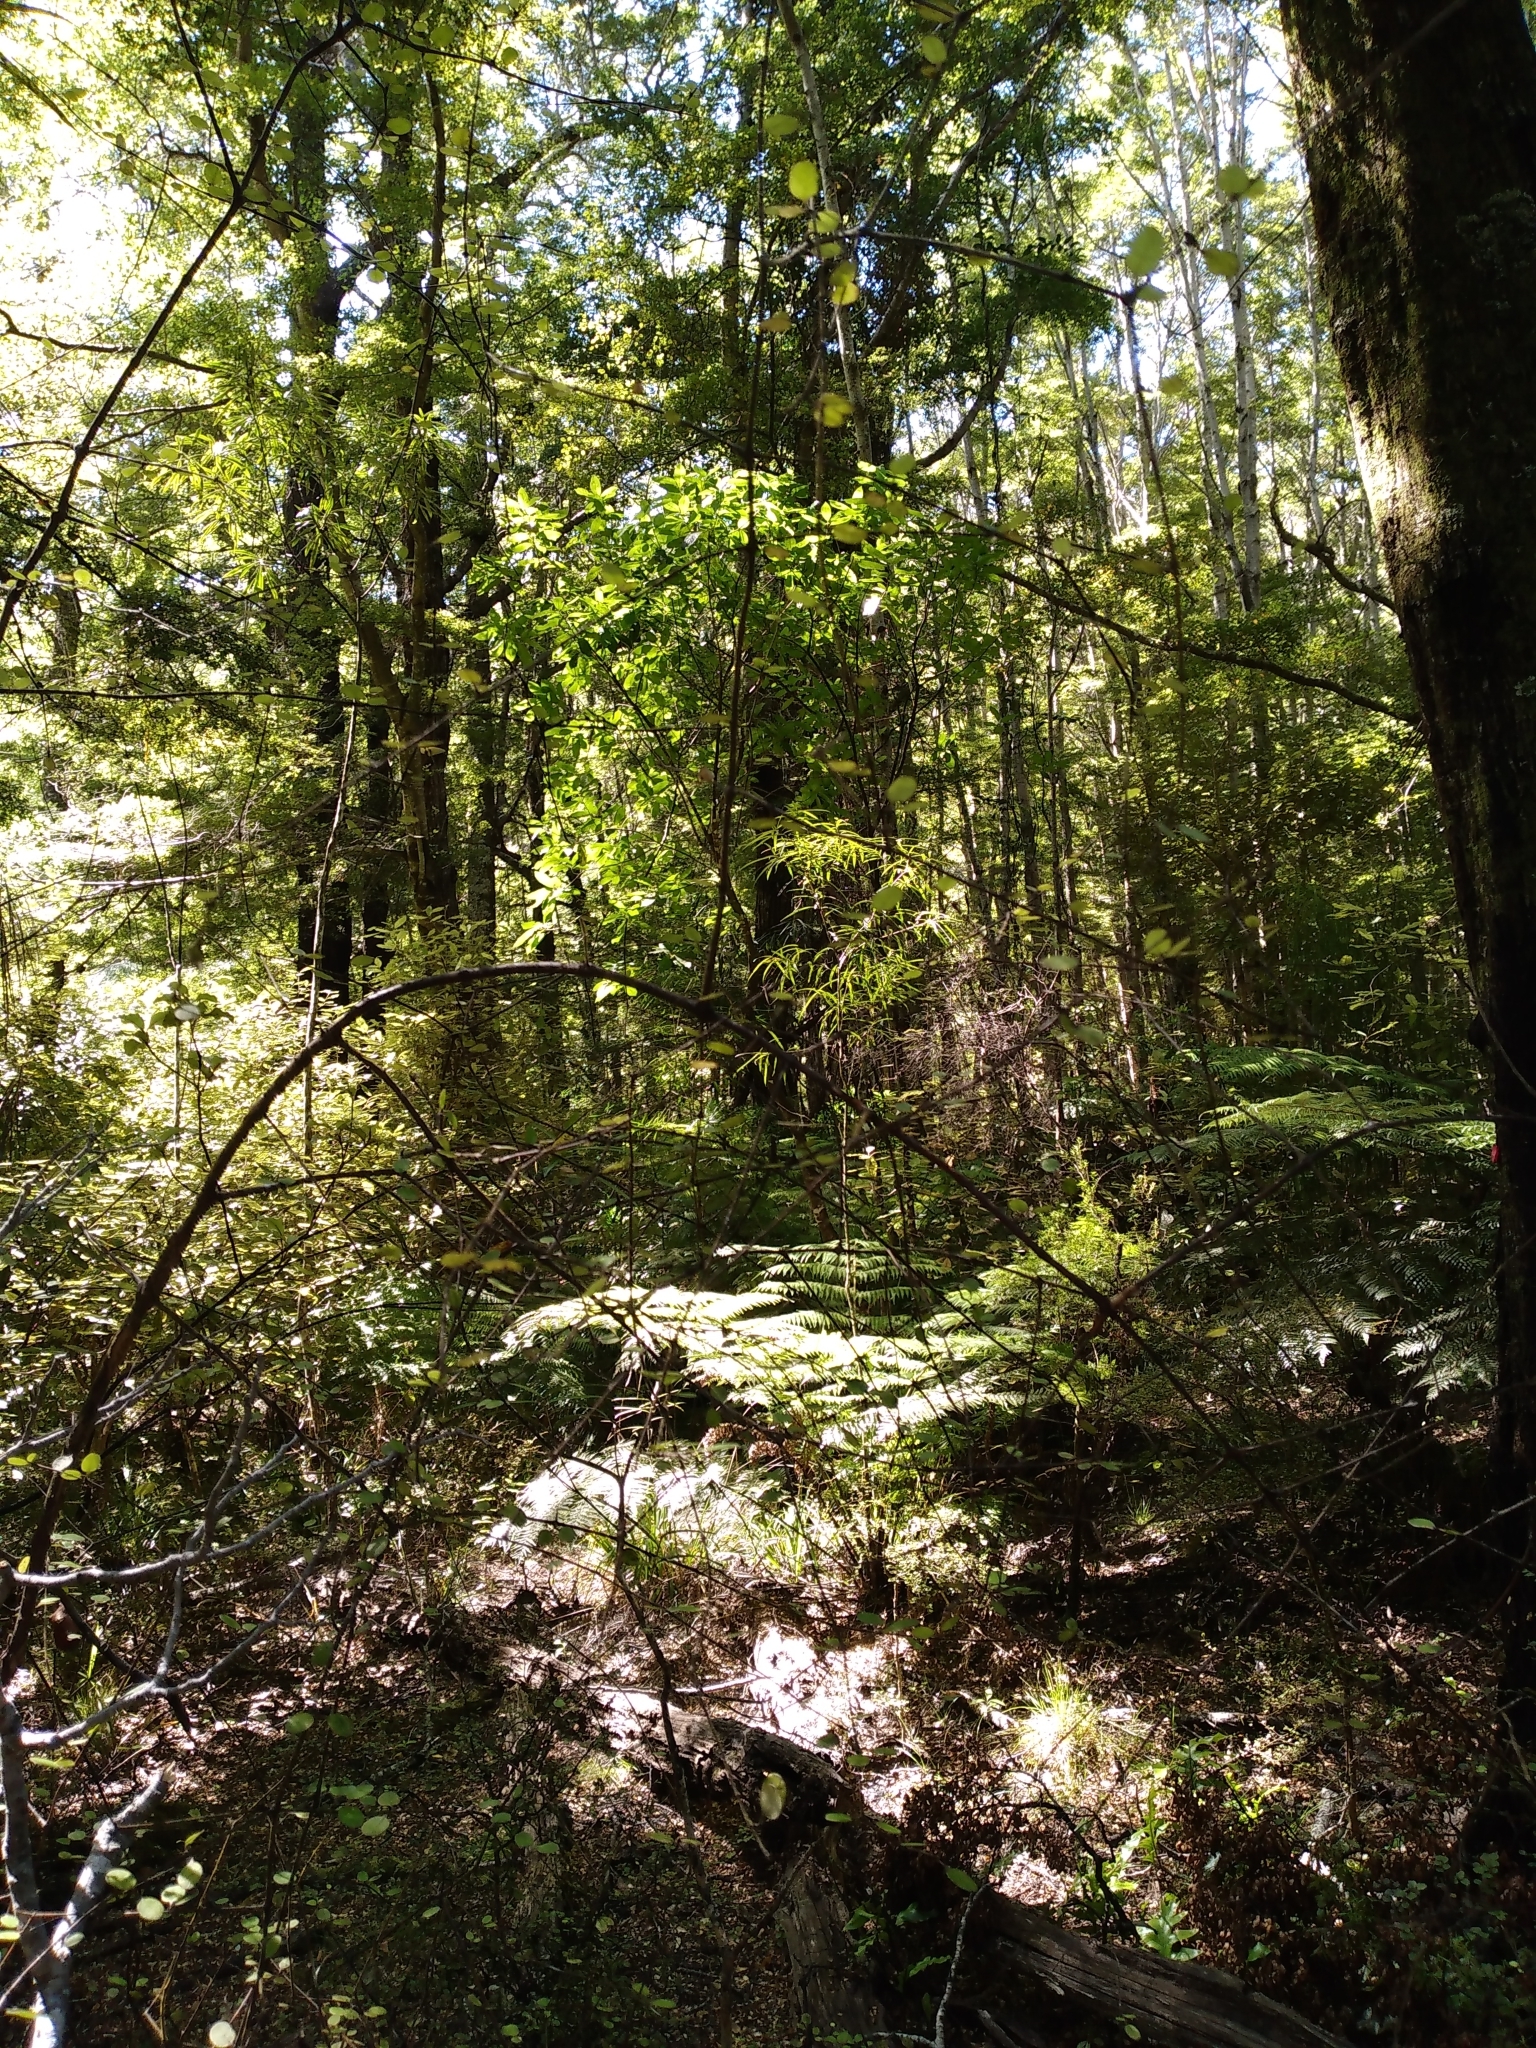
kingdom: Plantae
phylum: Tracheophyta
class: Magnoliopsida
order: Gentianales
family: Rubiaceae
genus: Coprosma
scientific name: Coprosma crassifolia
